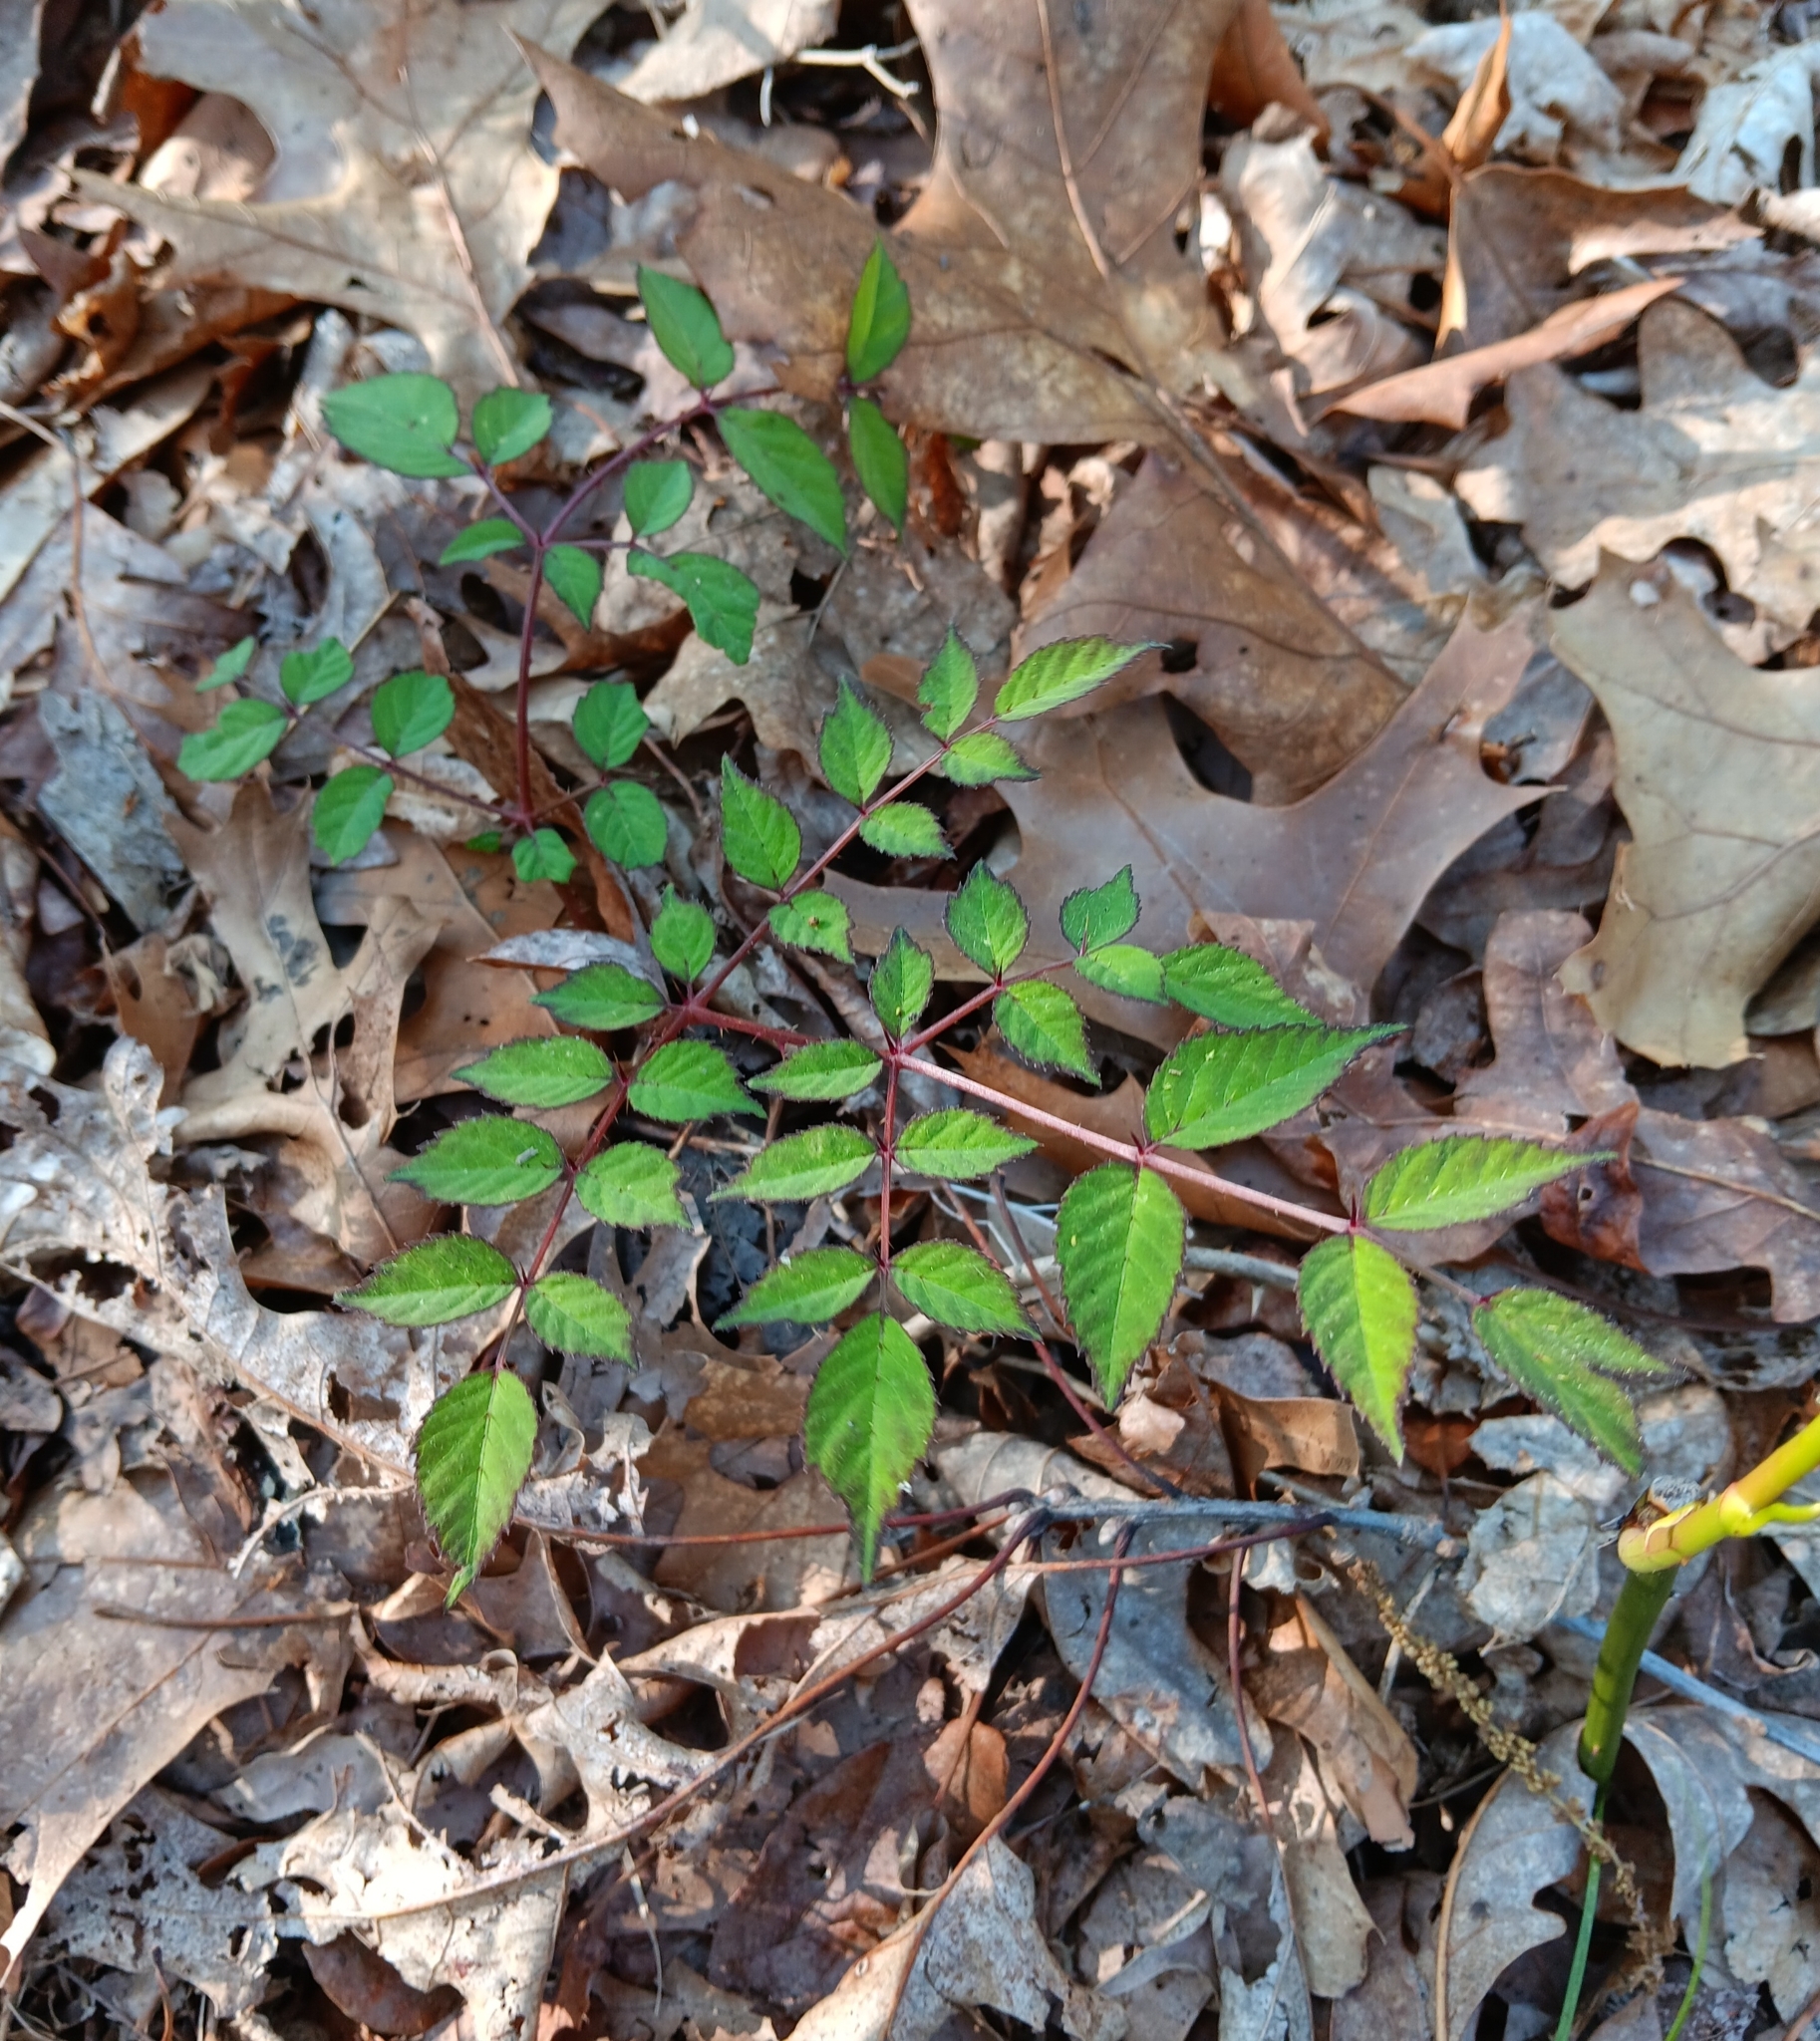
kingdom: Plantae
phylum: Tracheophyta
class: Magnoliopsida
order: Apiales
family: Araliaceae
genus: Aralia
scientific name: Aralia elata
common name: Japanese angelica-tree
